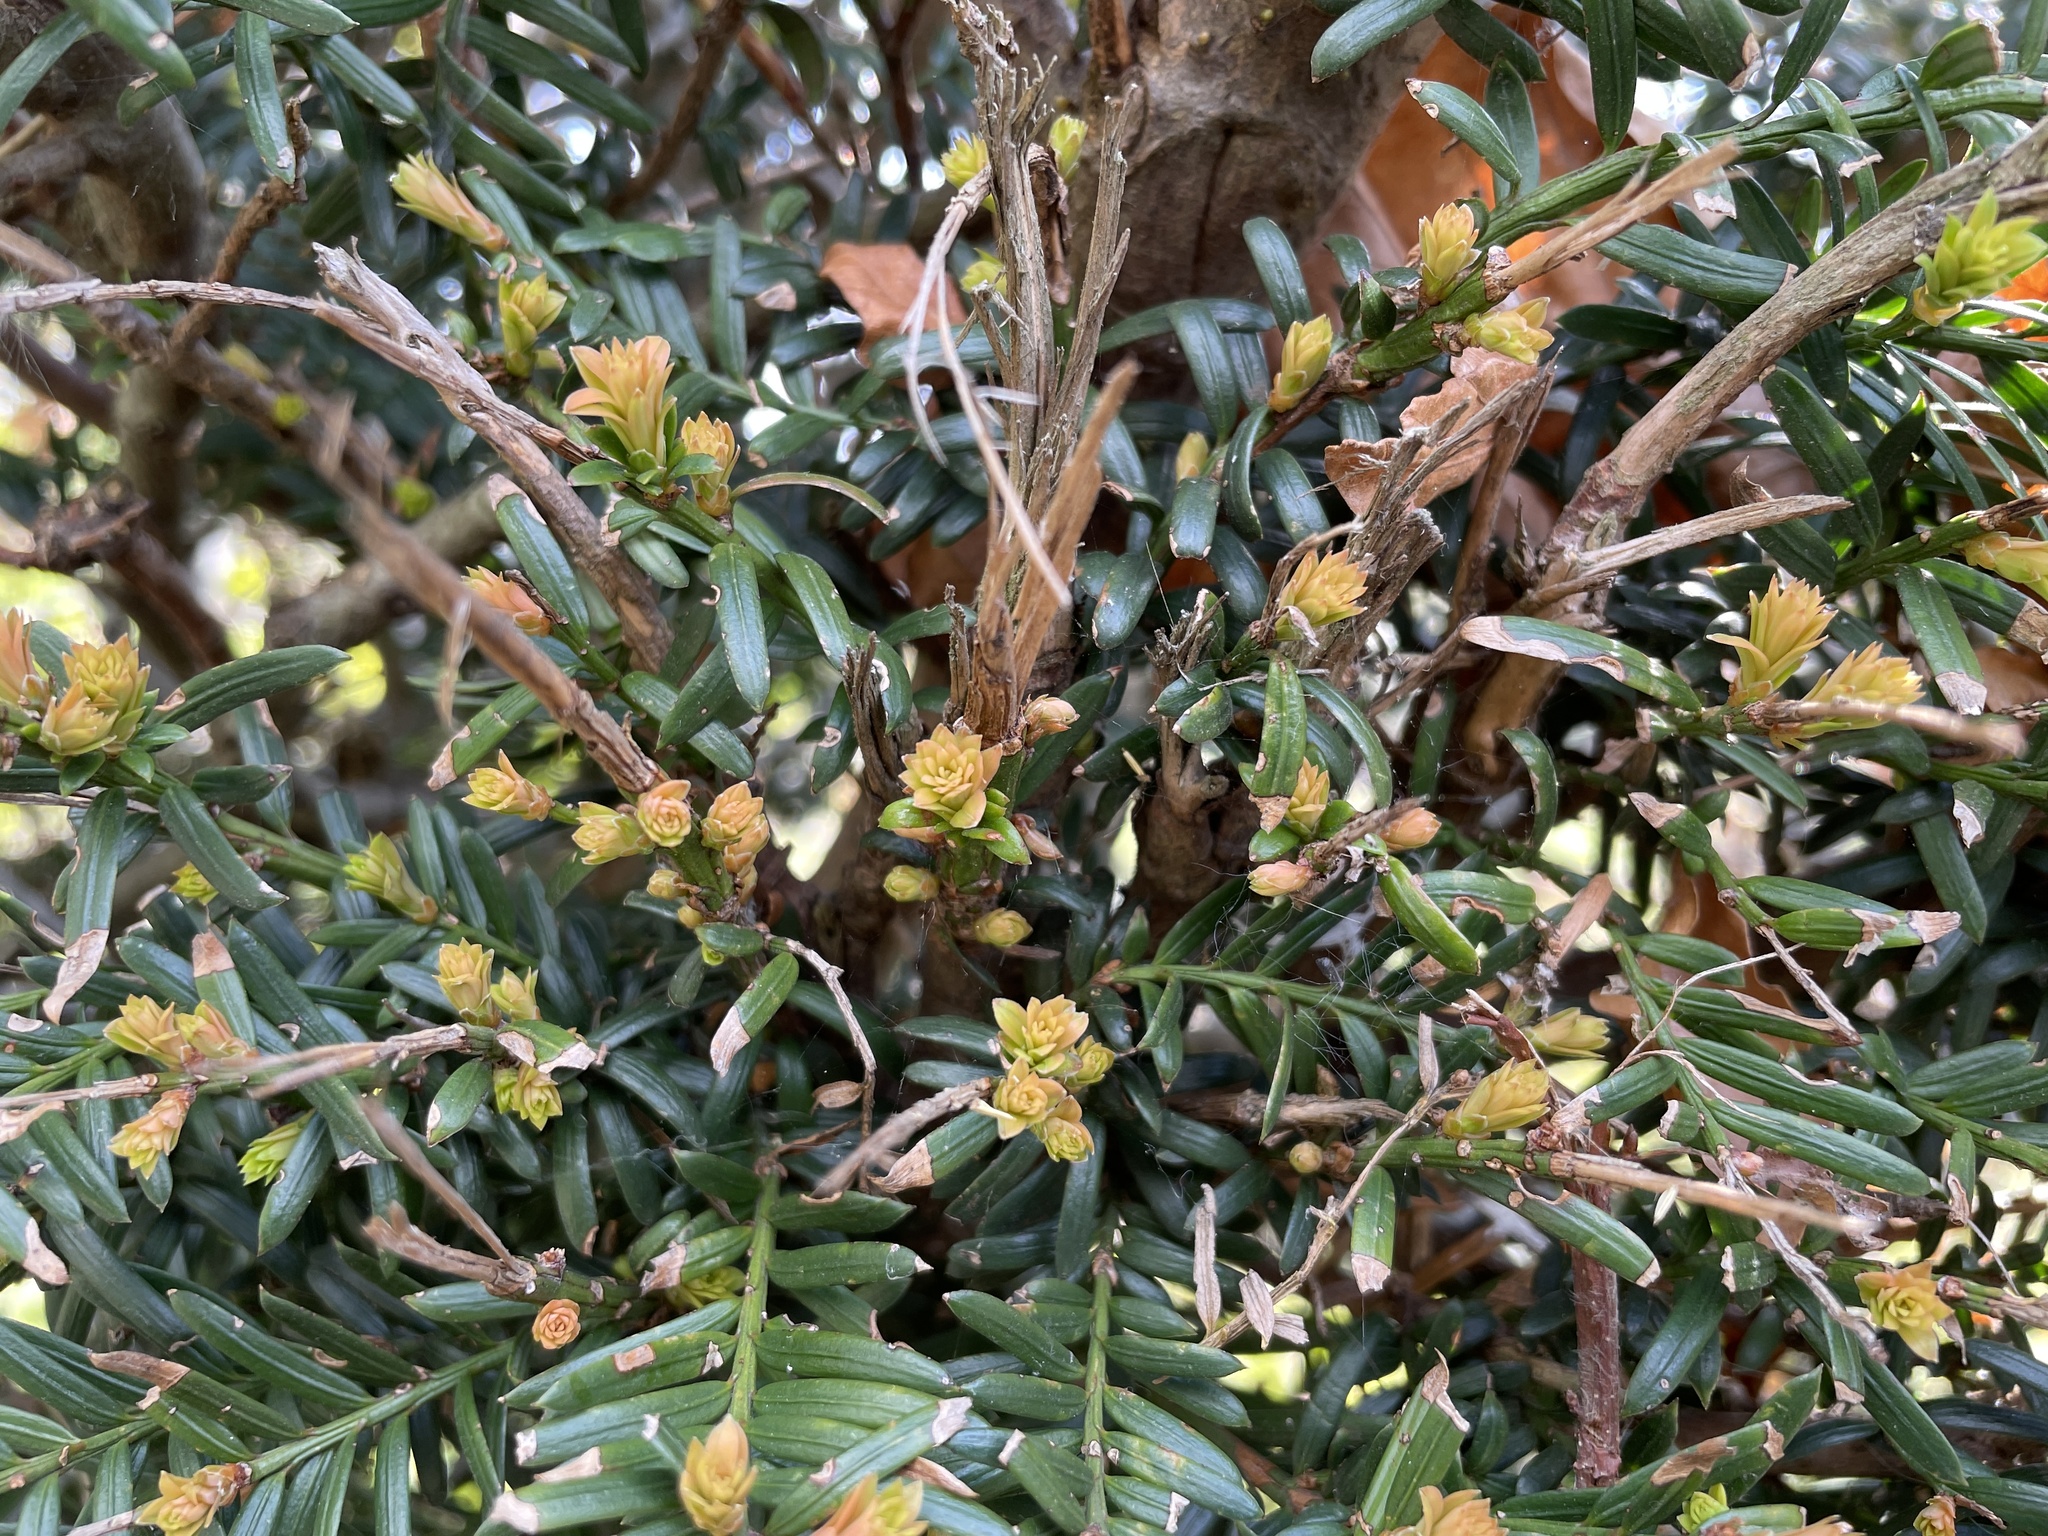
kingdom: Plantae
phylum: Tracheophyta
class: Pinopsida
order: Pinales
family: Taxaceae
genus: Taxus
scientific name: Taxus baccata
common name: Yew
